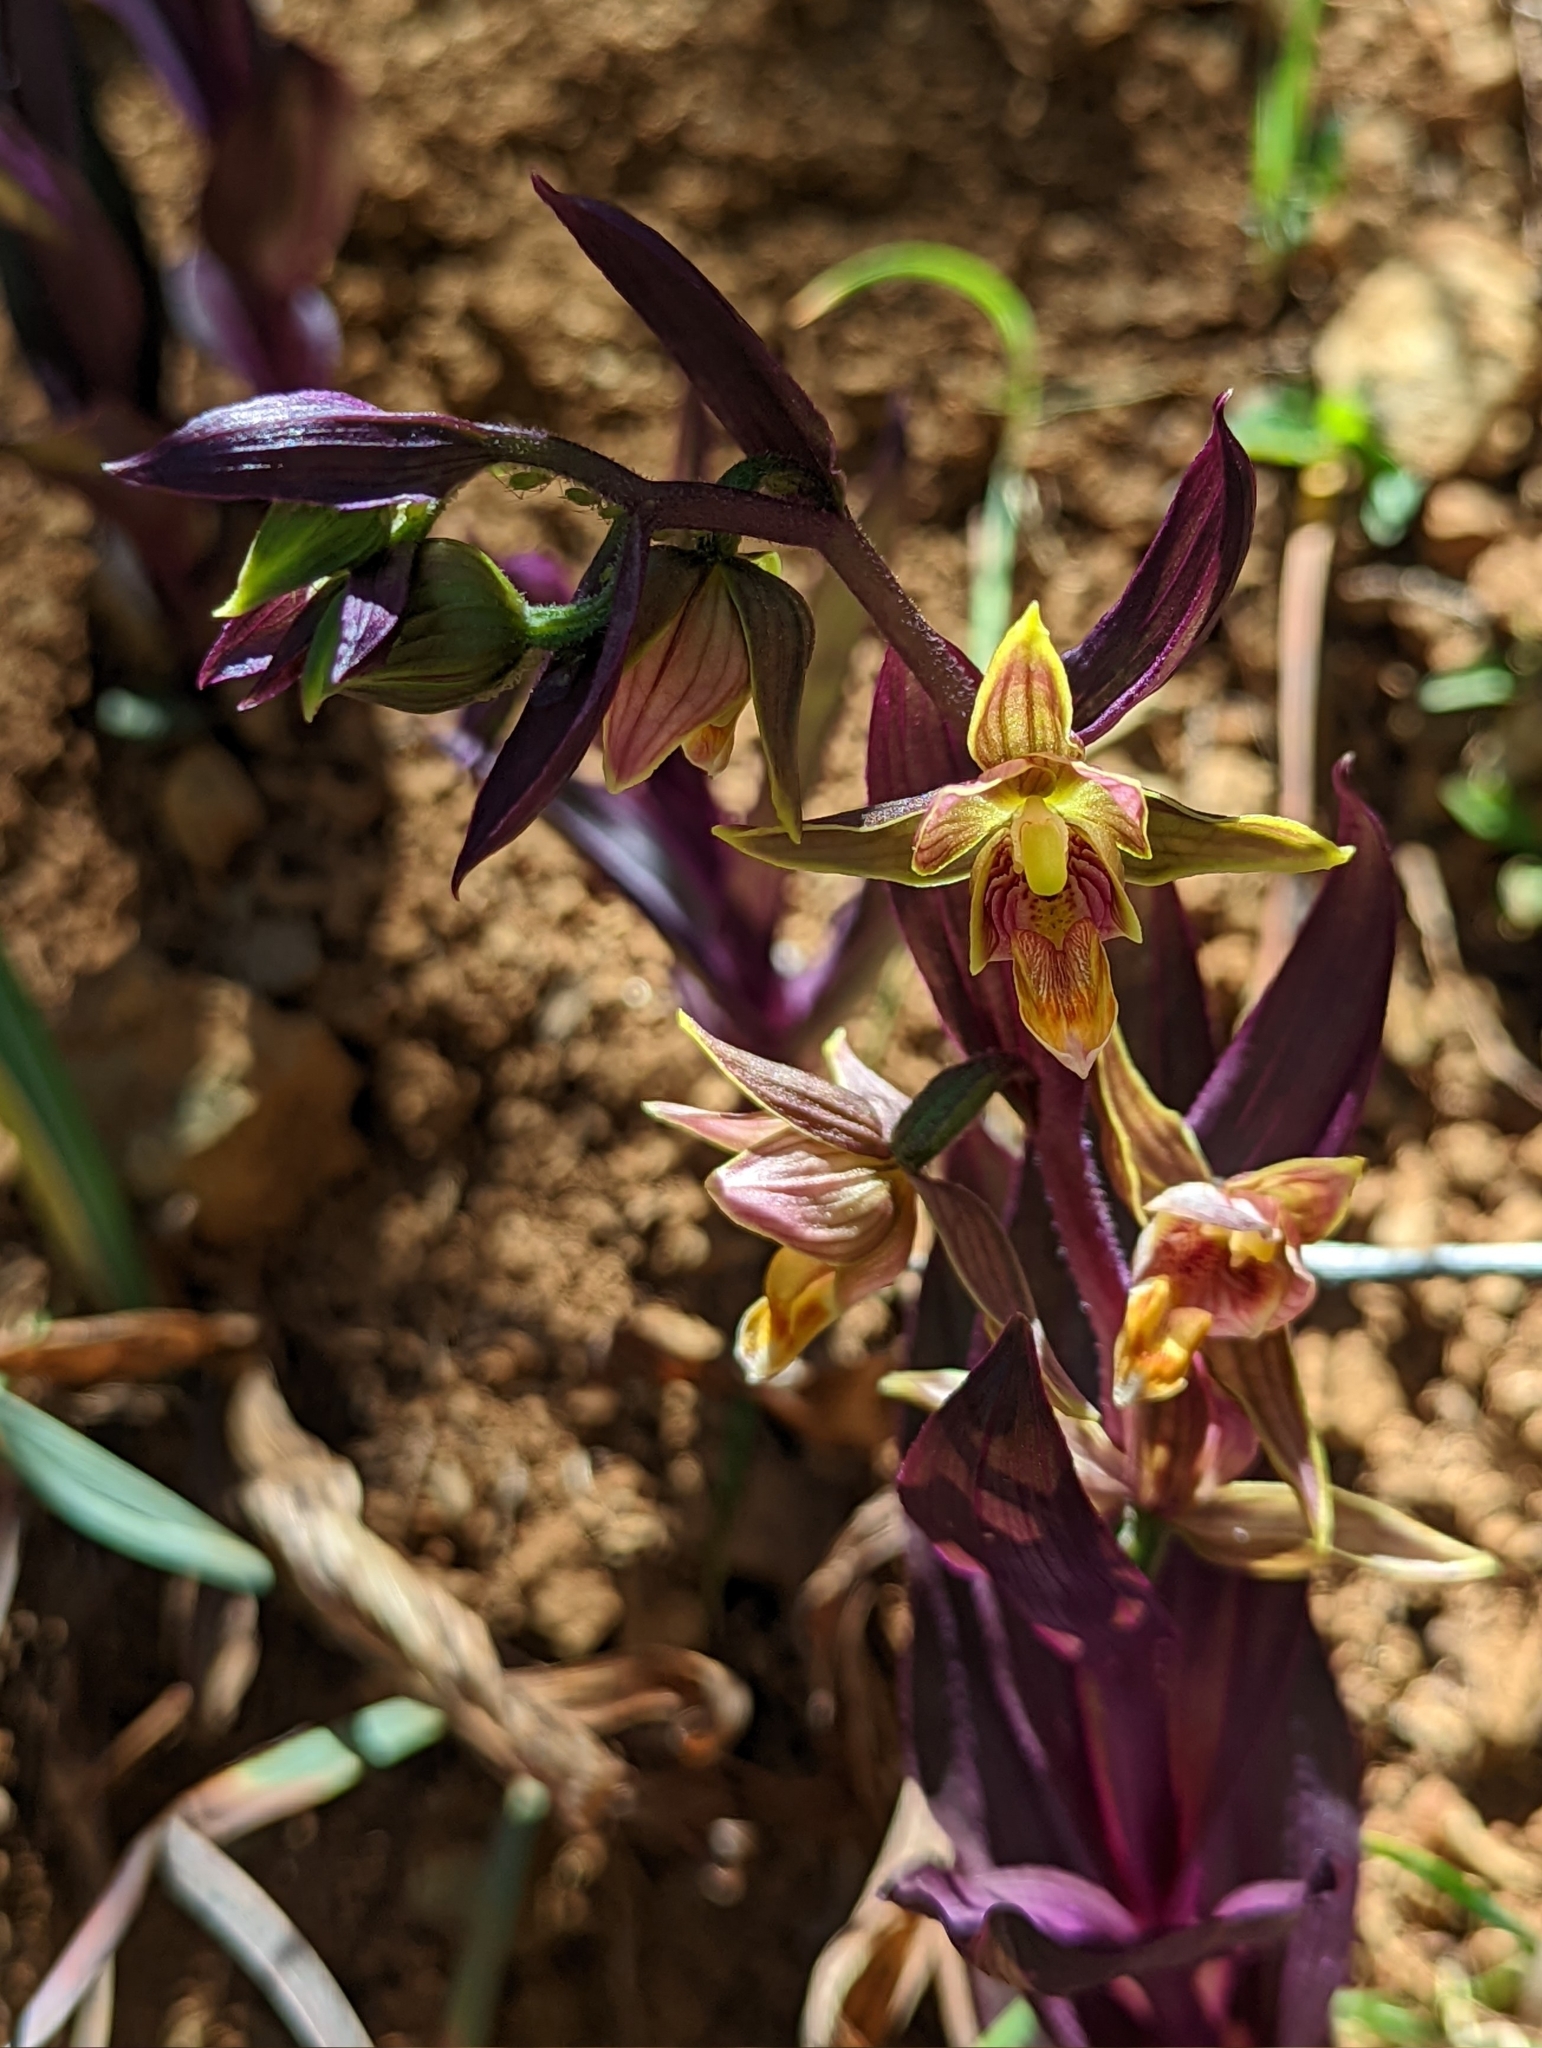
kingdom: Plantae
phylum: Tracheophyta
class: Liliopsida
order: Asparagales
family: Orchidaceae
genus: Epipactis
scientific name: Epipactis gigantea
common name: Chatterbox
